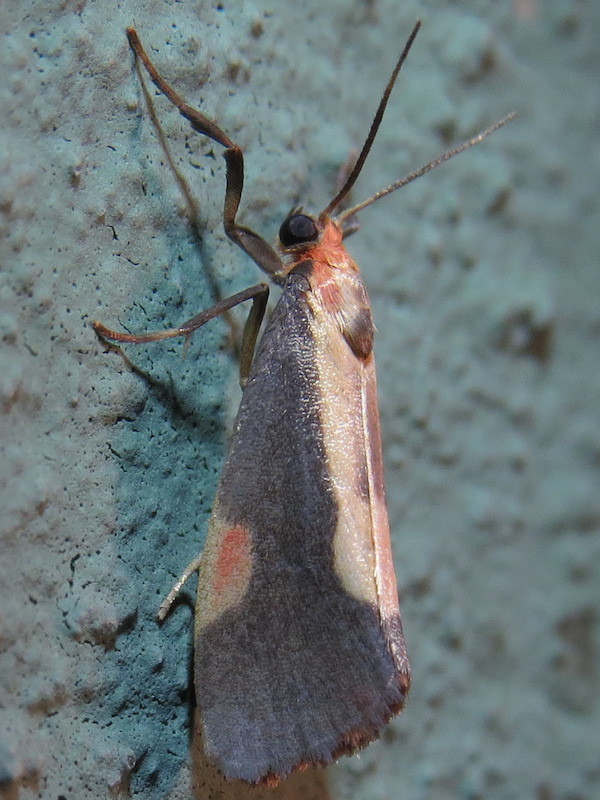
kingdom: Animalia
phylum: Arthropoda
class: Insecta
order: Lepidoptera
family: Erebidae
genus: Cisthene
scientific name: Cisthene packardii
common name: Packard's lichen moth
